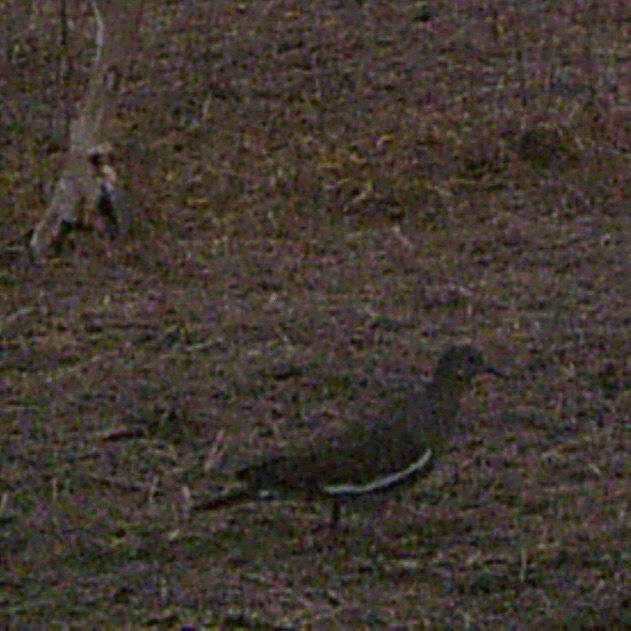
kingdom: Animalia
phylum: Chordata
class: Aves
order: Columbiformes
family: Columbidae
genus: Zenaida
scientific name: Zenaida asiatica
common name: White-winged dove
